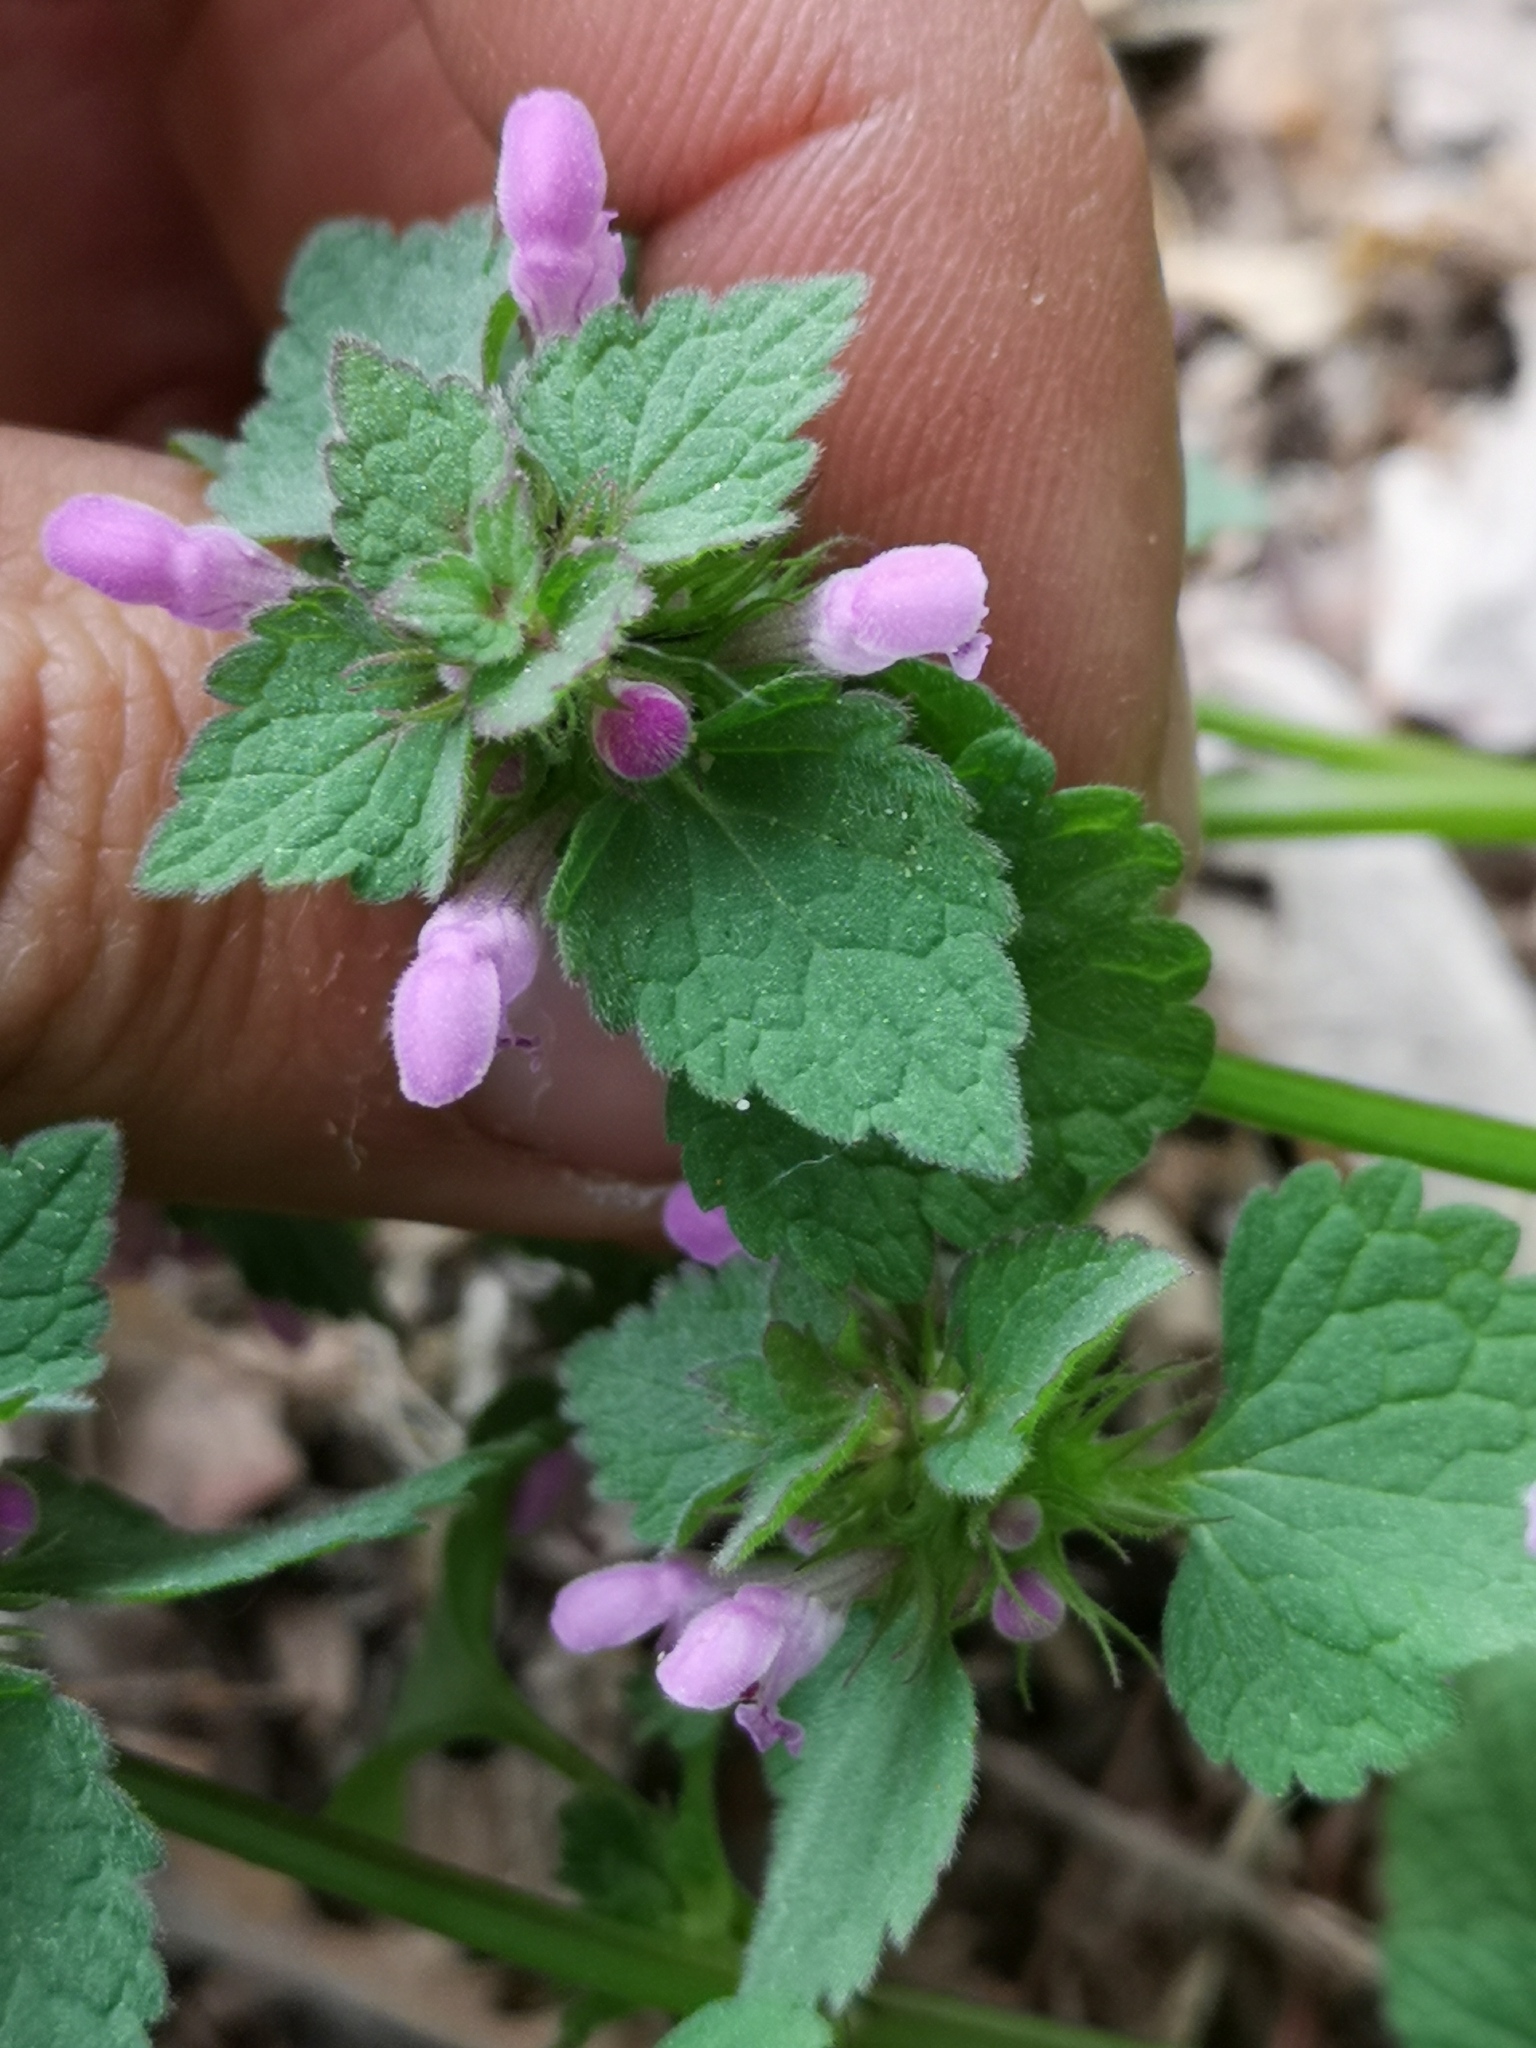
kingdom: Plantae
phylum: Tracheophyta
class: Magnoliopsida
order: Lamiales
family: Lamiaceae
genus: Lamium
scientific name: Lamium purpureum
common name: Red dead-nettle
